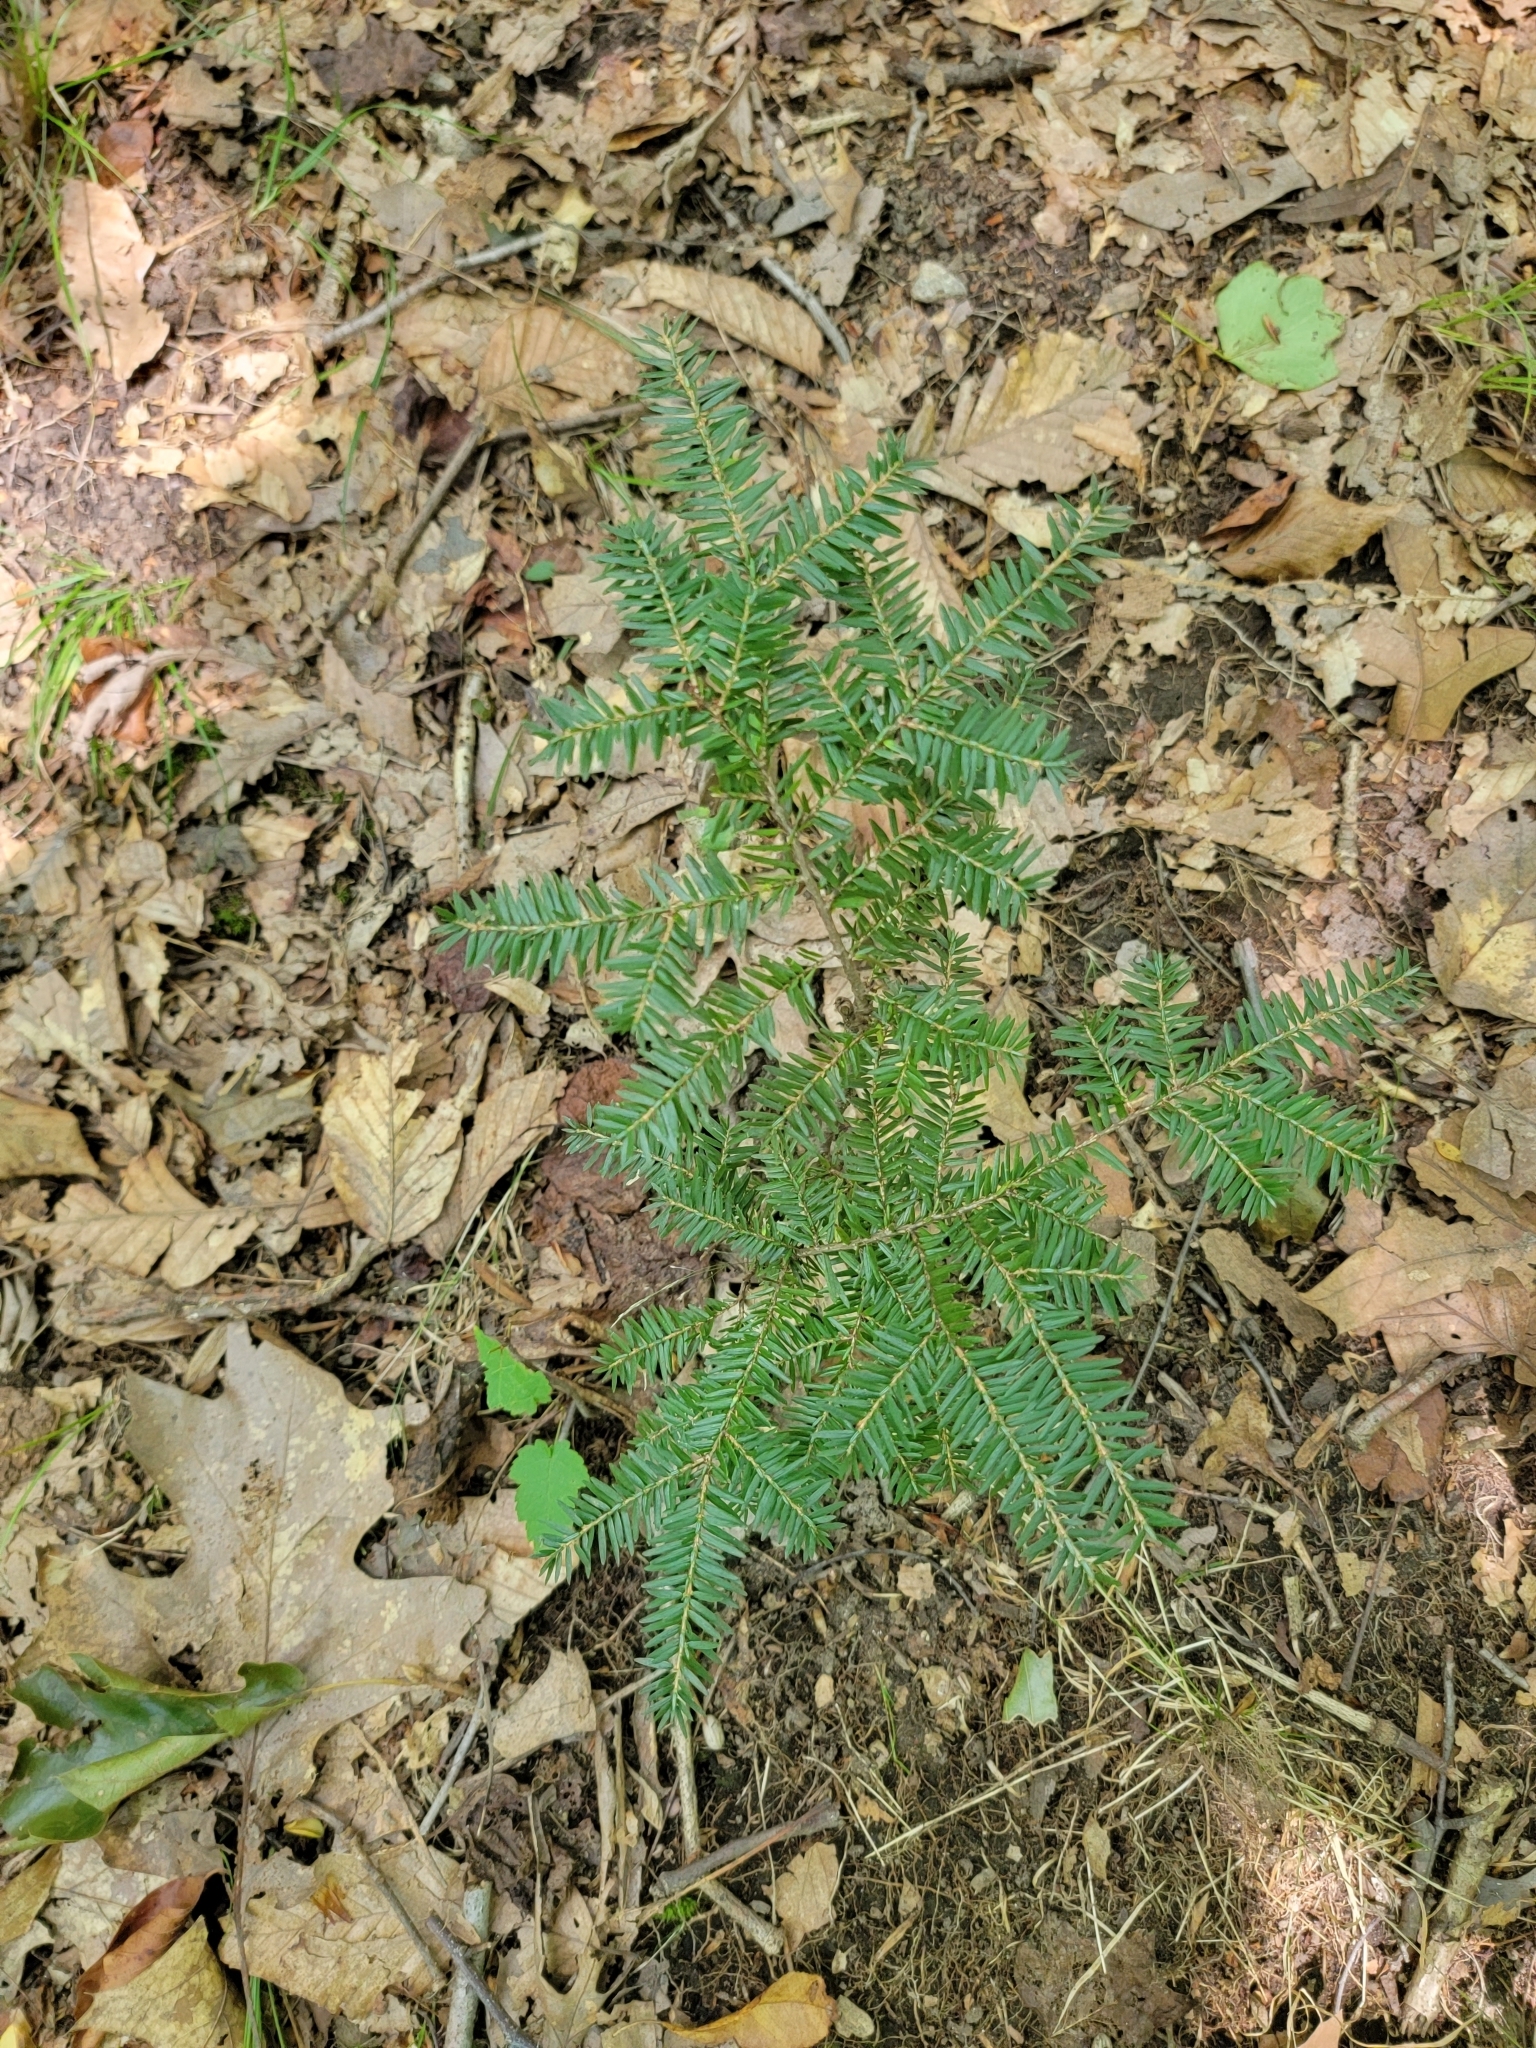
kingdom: Plantae
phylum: Tracheophyta
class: Pinopsida
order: Pinales
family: Pinaceae
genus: Tsuga
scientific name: Tsuga canadensis
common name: Eastern hemlock
